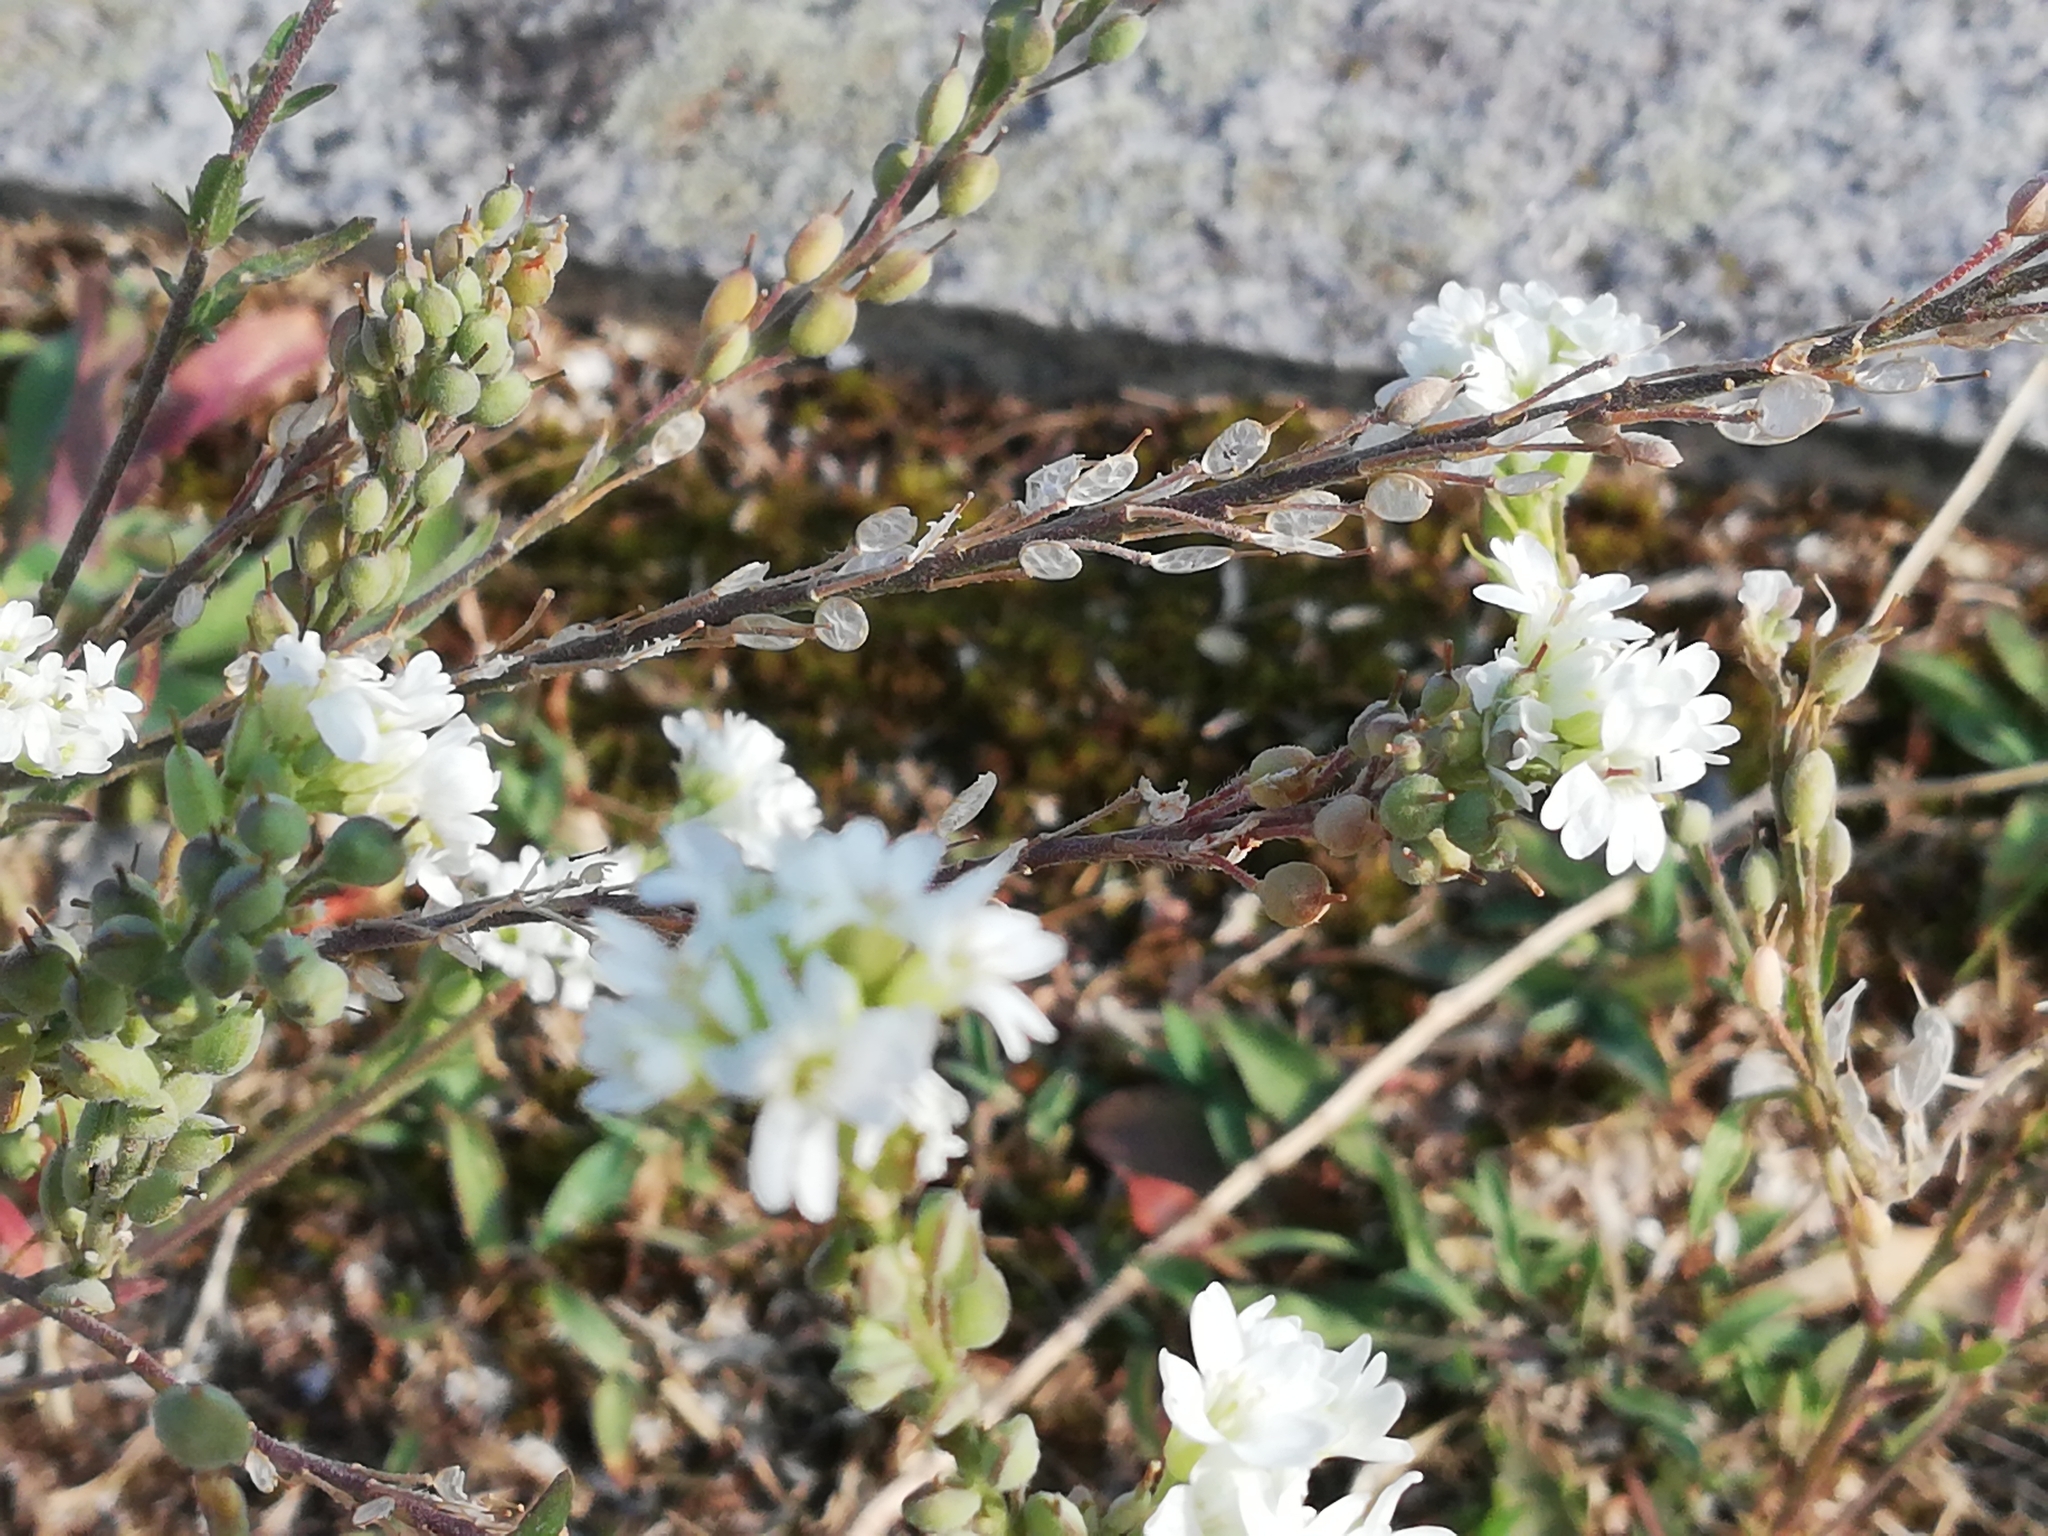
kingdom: Plantae
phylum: Tracheophyta
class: Magnoliopsida
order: Brassicales
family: Brassicaceae
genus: Berteroa
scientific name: Berteroa incana
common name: Hoary alison
